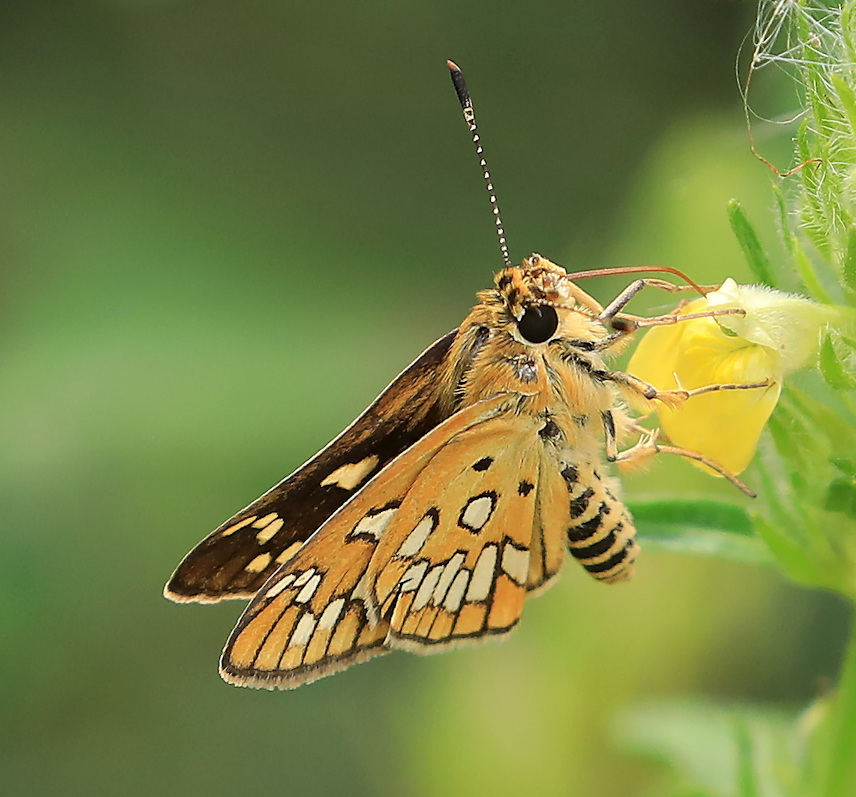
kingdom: Animalia
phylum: Arthropoda
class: Insecta
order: Lepidoptera
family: Hesperiidae
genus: Dotta
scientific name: Dotta
